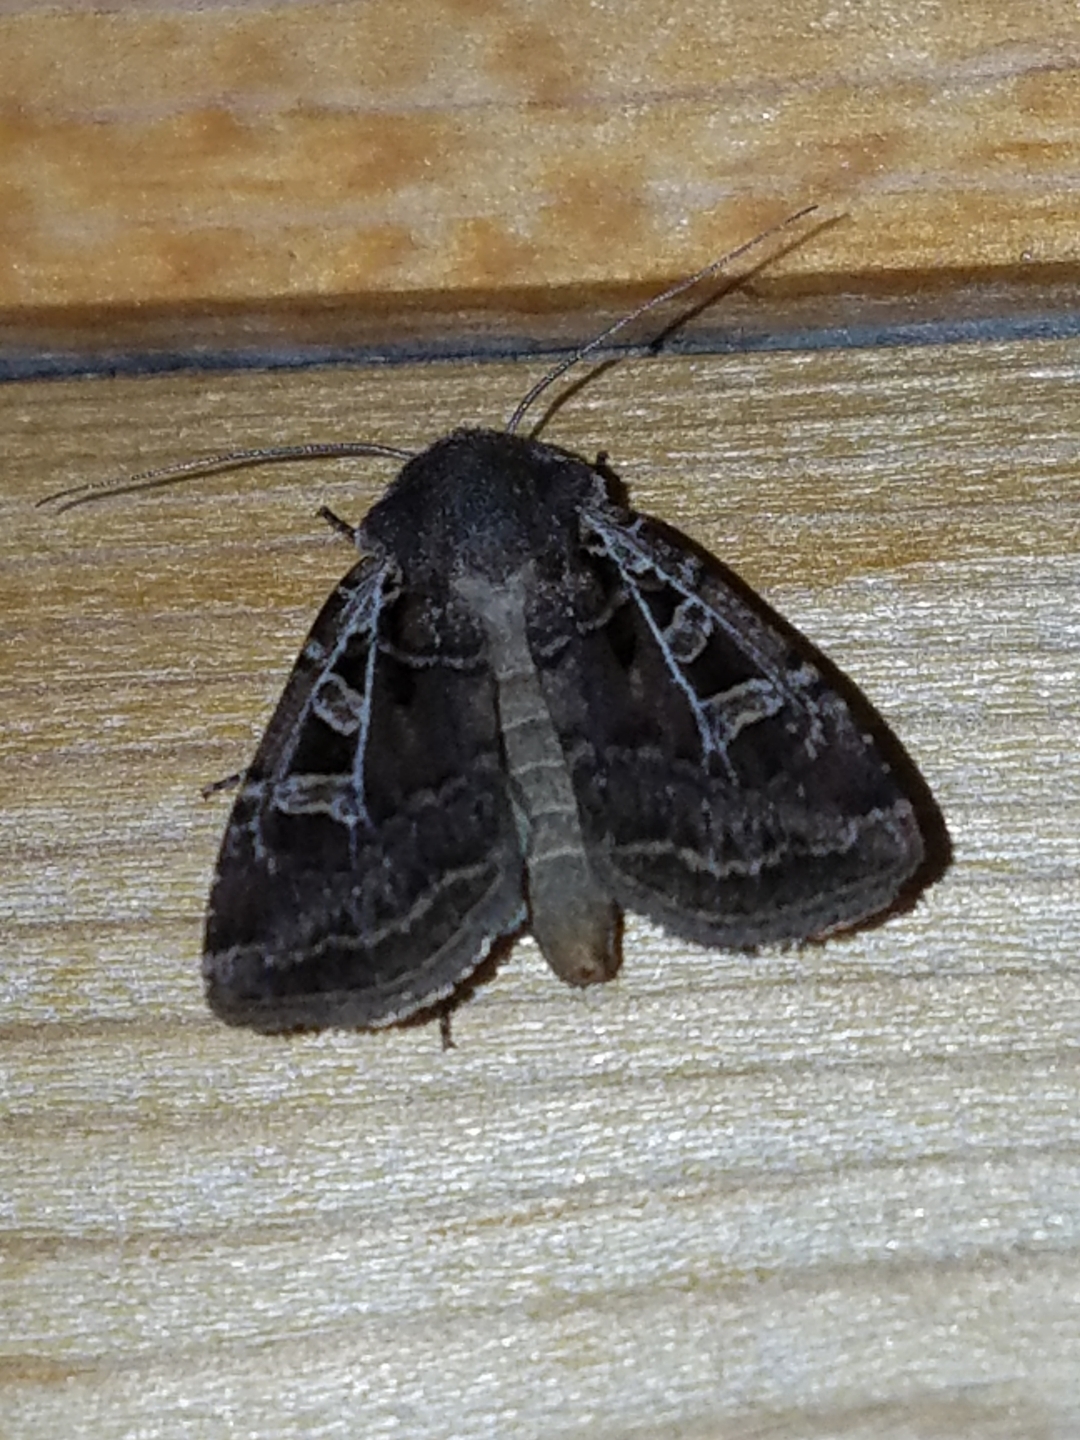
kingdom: Animalia
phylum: Arthropoda
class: Insecta
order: Lepidoptera
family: Noctuidae
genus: Euxoa
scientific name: Euxoa divergens
